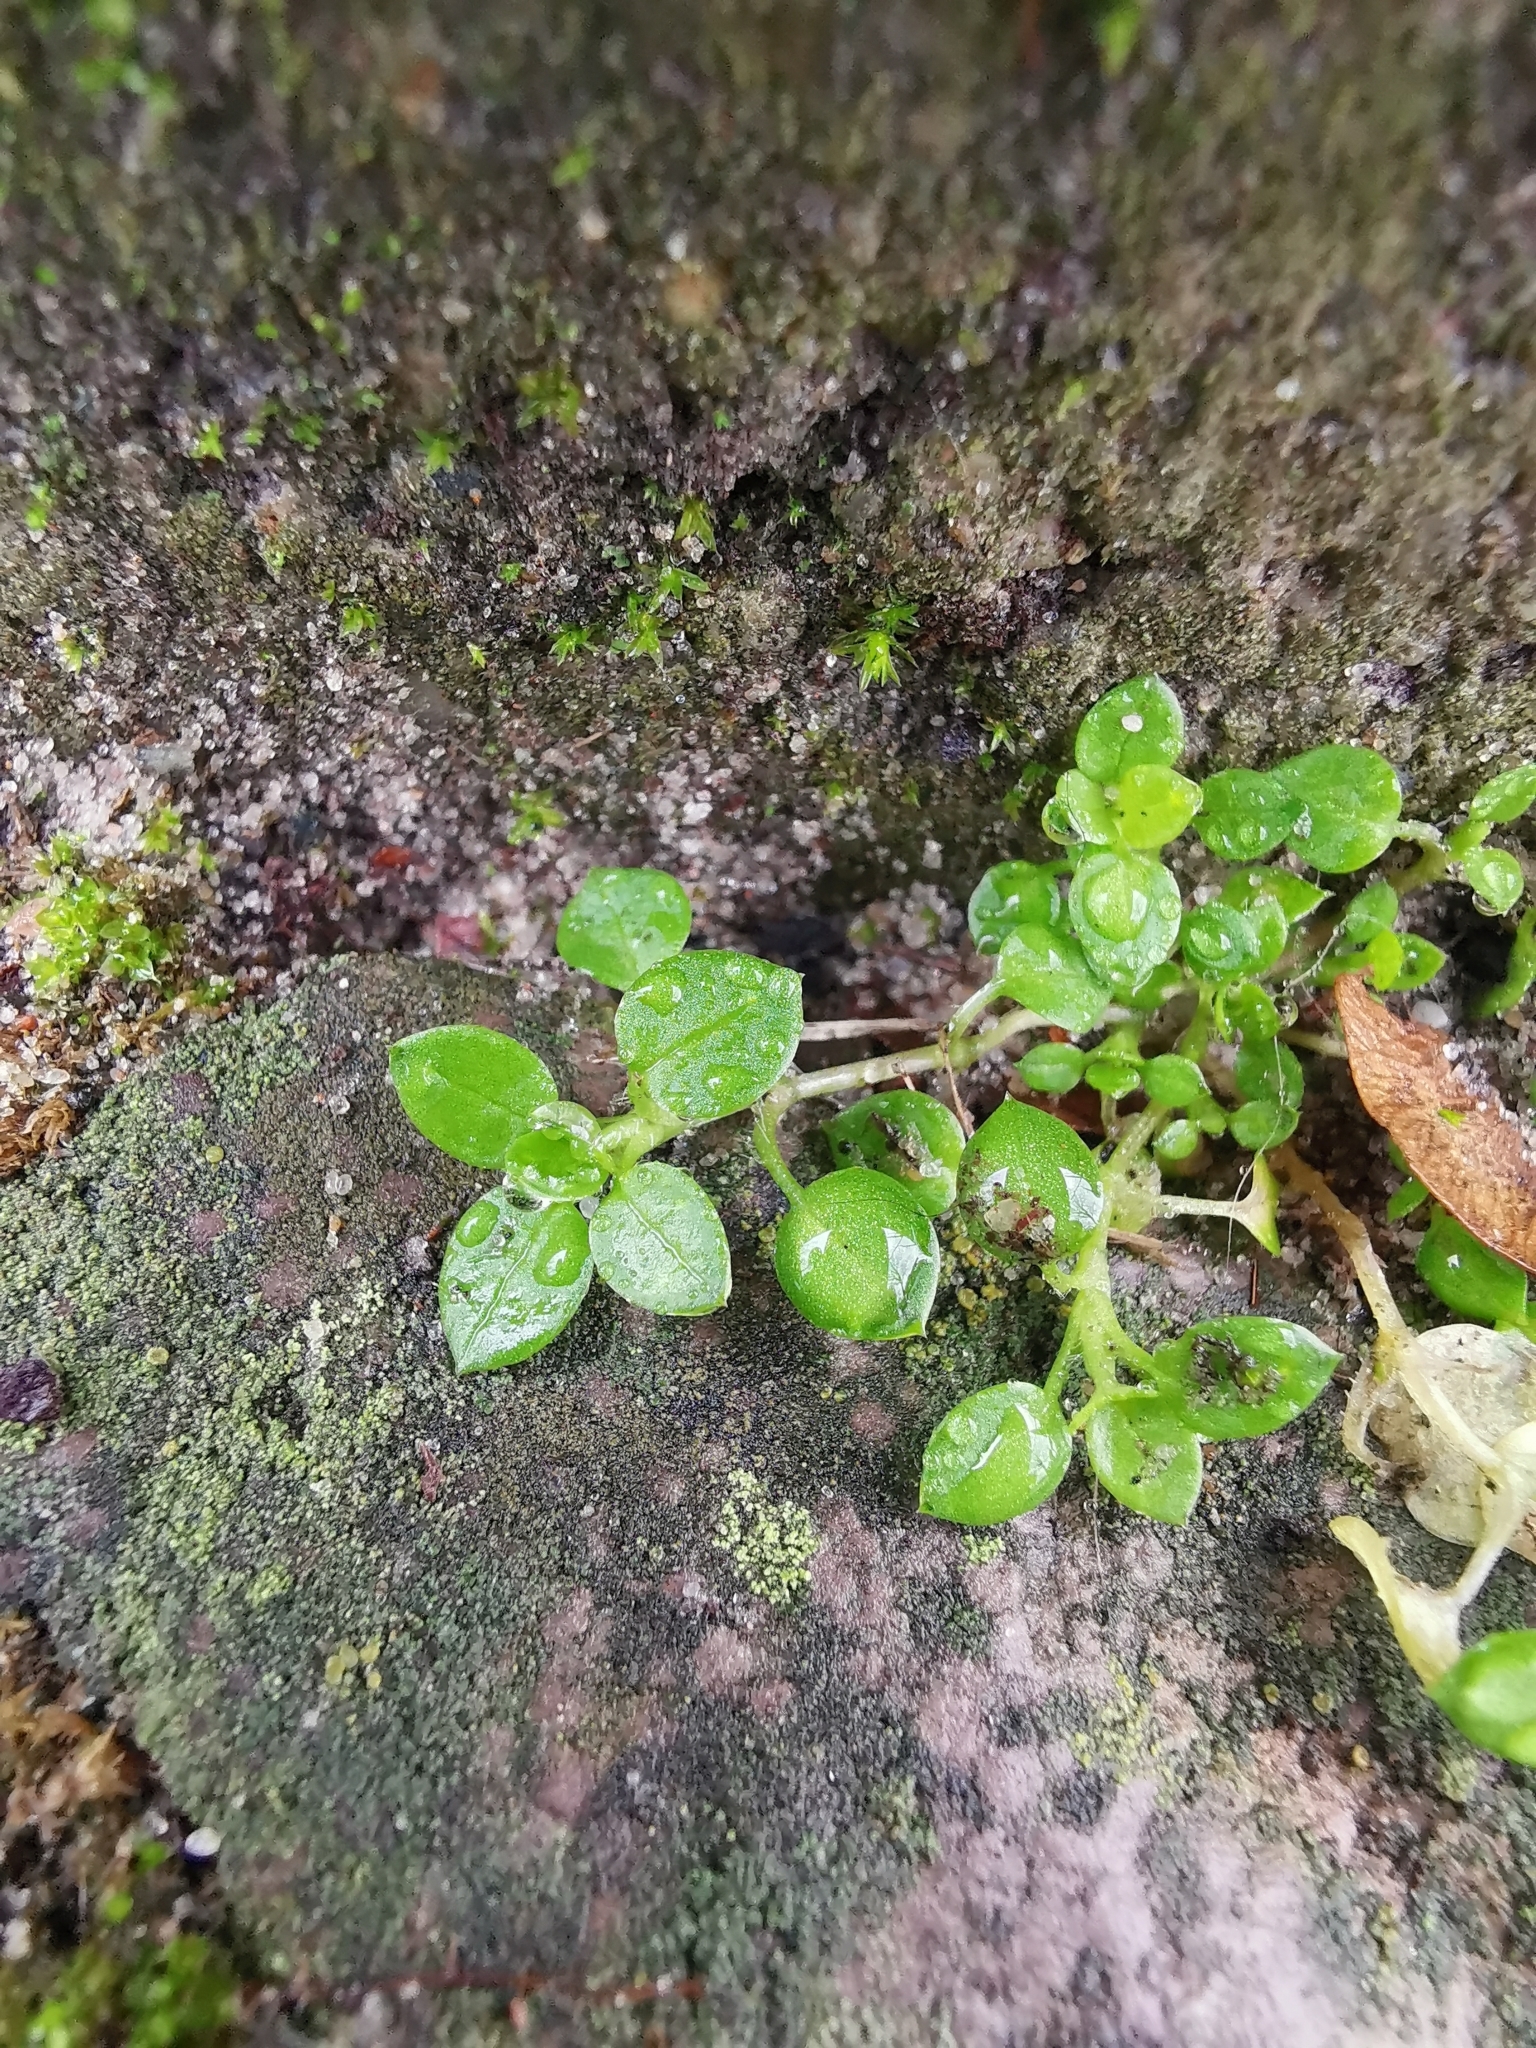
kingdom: Plantae
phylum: Tracheophyta
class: Magnoliopsida
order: Caryophyllales
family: Caryophyllaceae
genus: Stellaria
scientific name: Stellaria media
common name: Common chickweed
